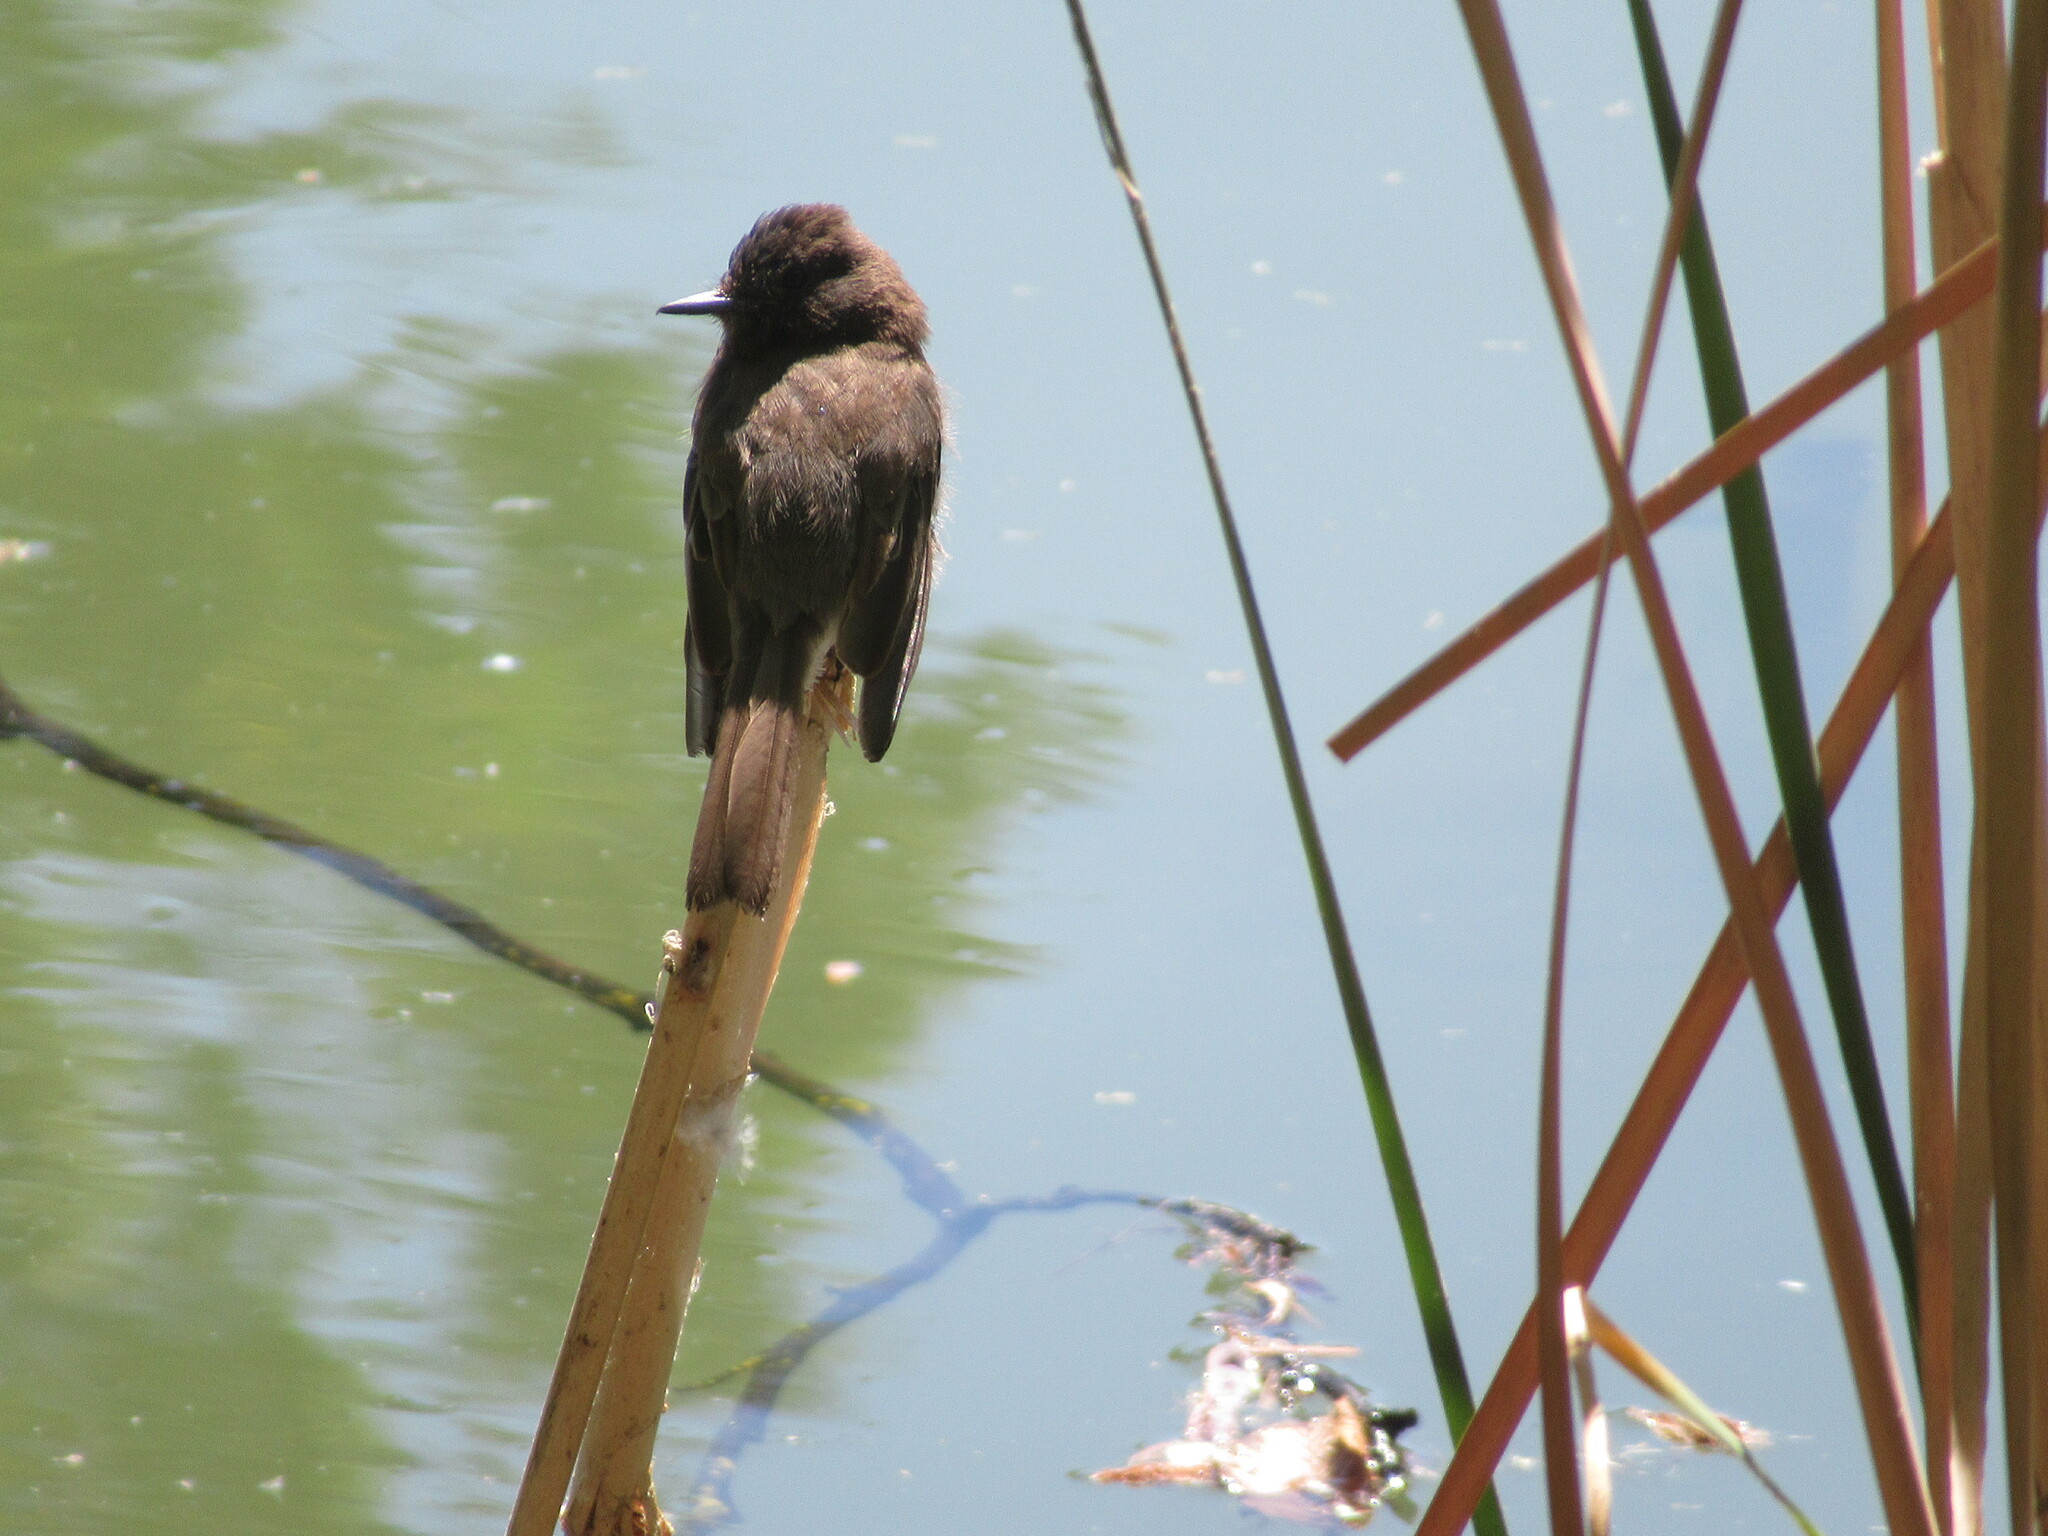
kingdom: Animalia
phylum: Chordata
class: Aves
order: Passeriformes
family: Tyrannidae
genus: Sayornis
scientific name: Sayornis nigricans
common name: Black phoebe
